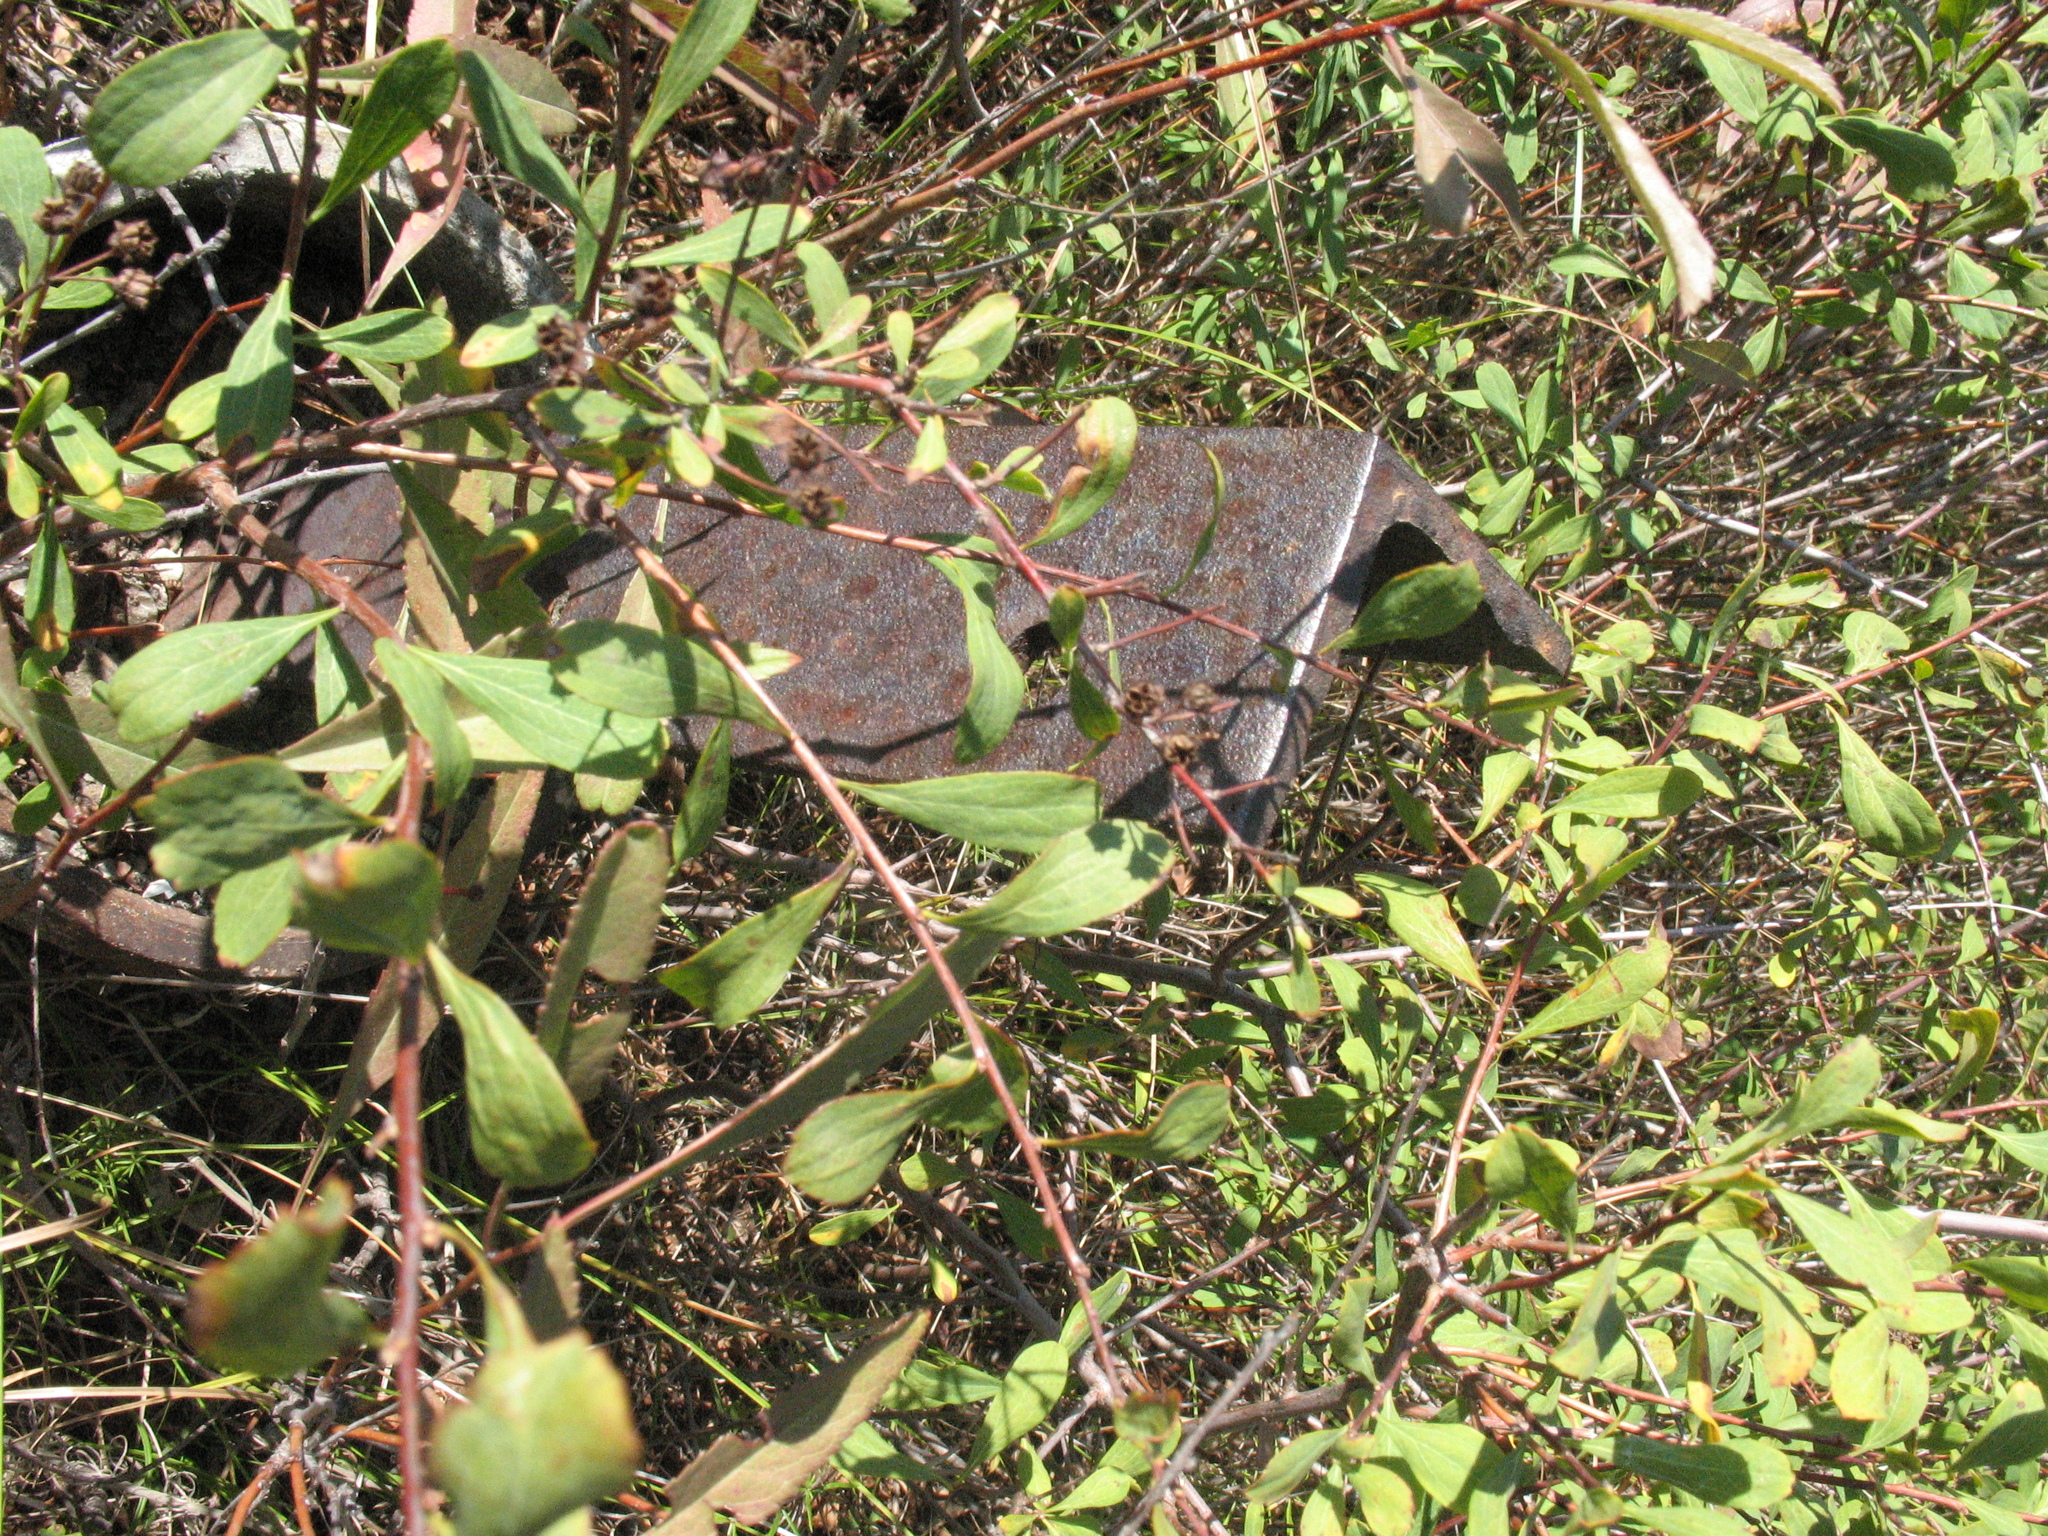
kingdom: Plantae
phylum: Tracheophyta
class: Magnoliopsida
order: Rosales
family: Rosaceae
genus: Spiraea
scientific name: Spiraea crenata
